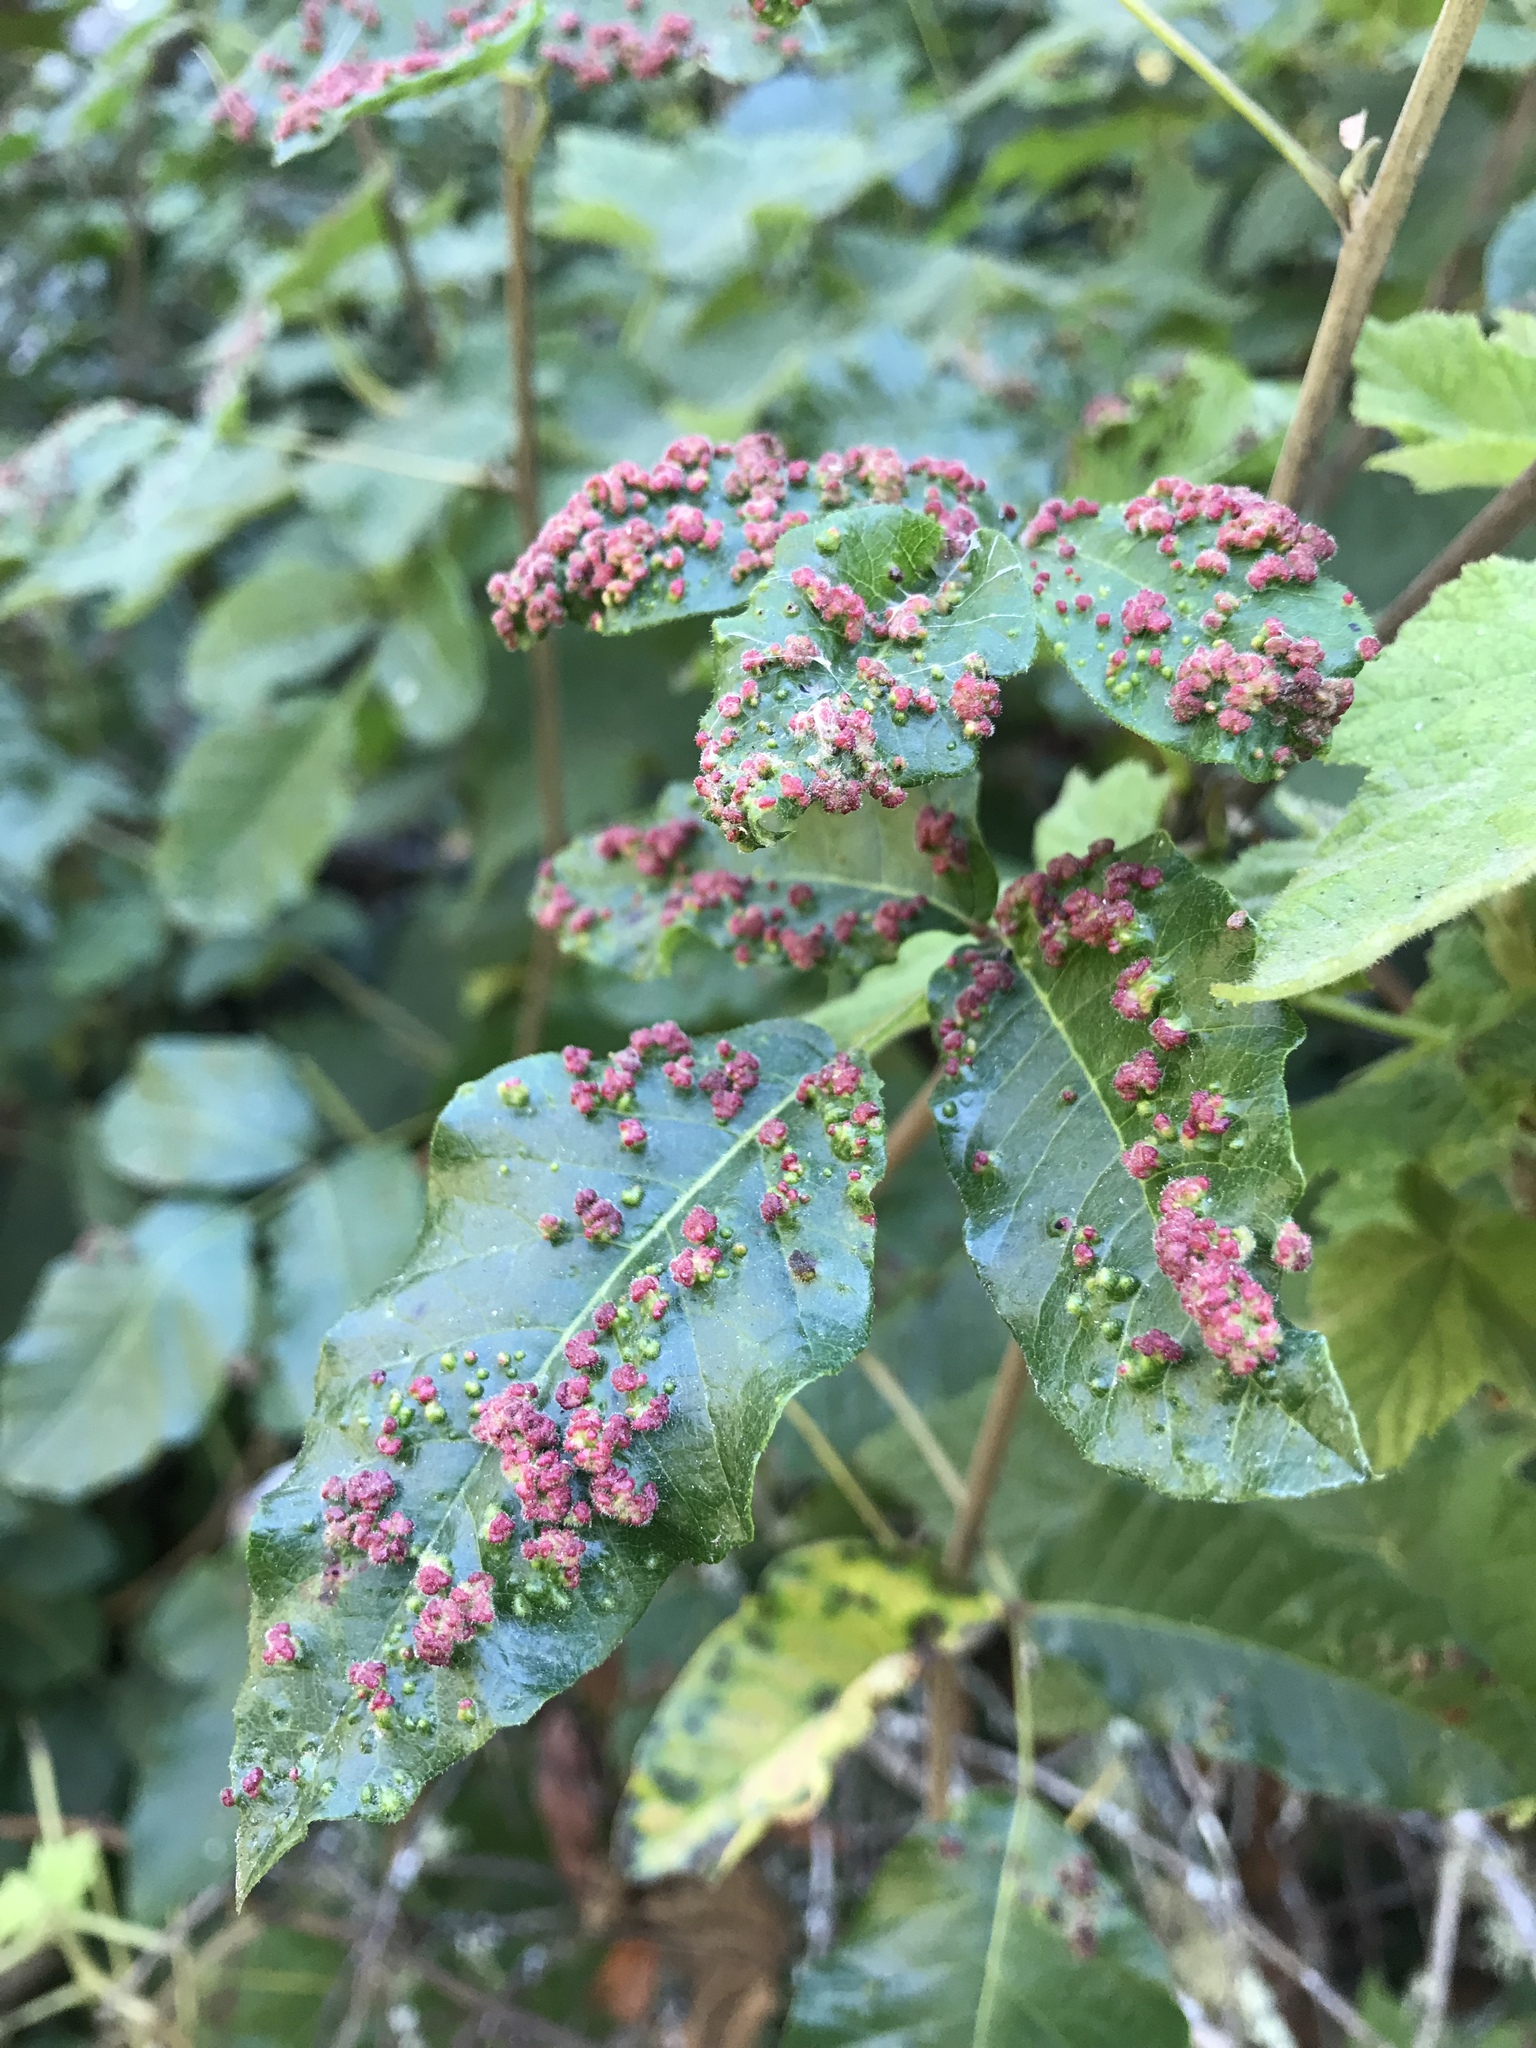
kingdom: Animalia
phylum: Arthropoda
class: Arachnida
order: Trombidiformes
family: Eriophyidae
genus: Aculops
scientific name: Aculops
